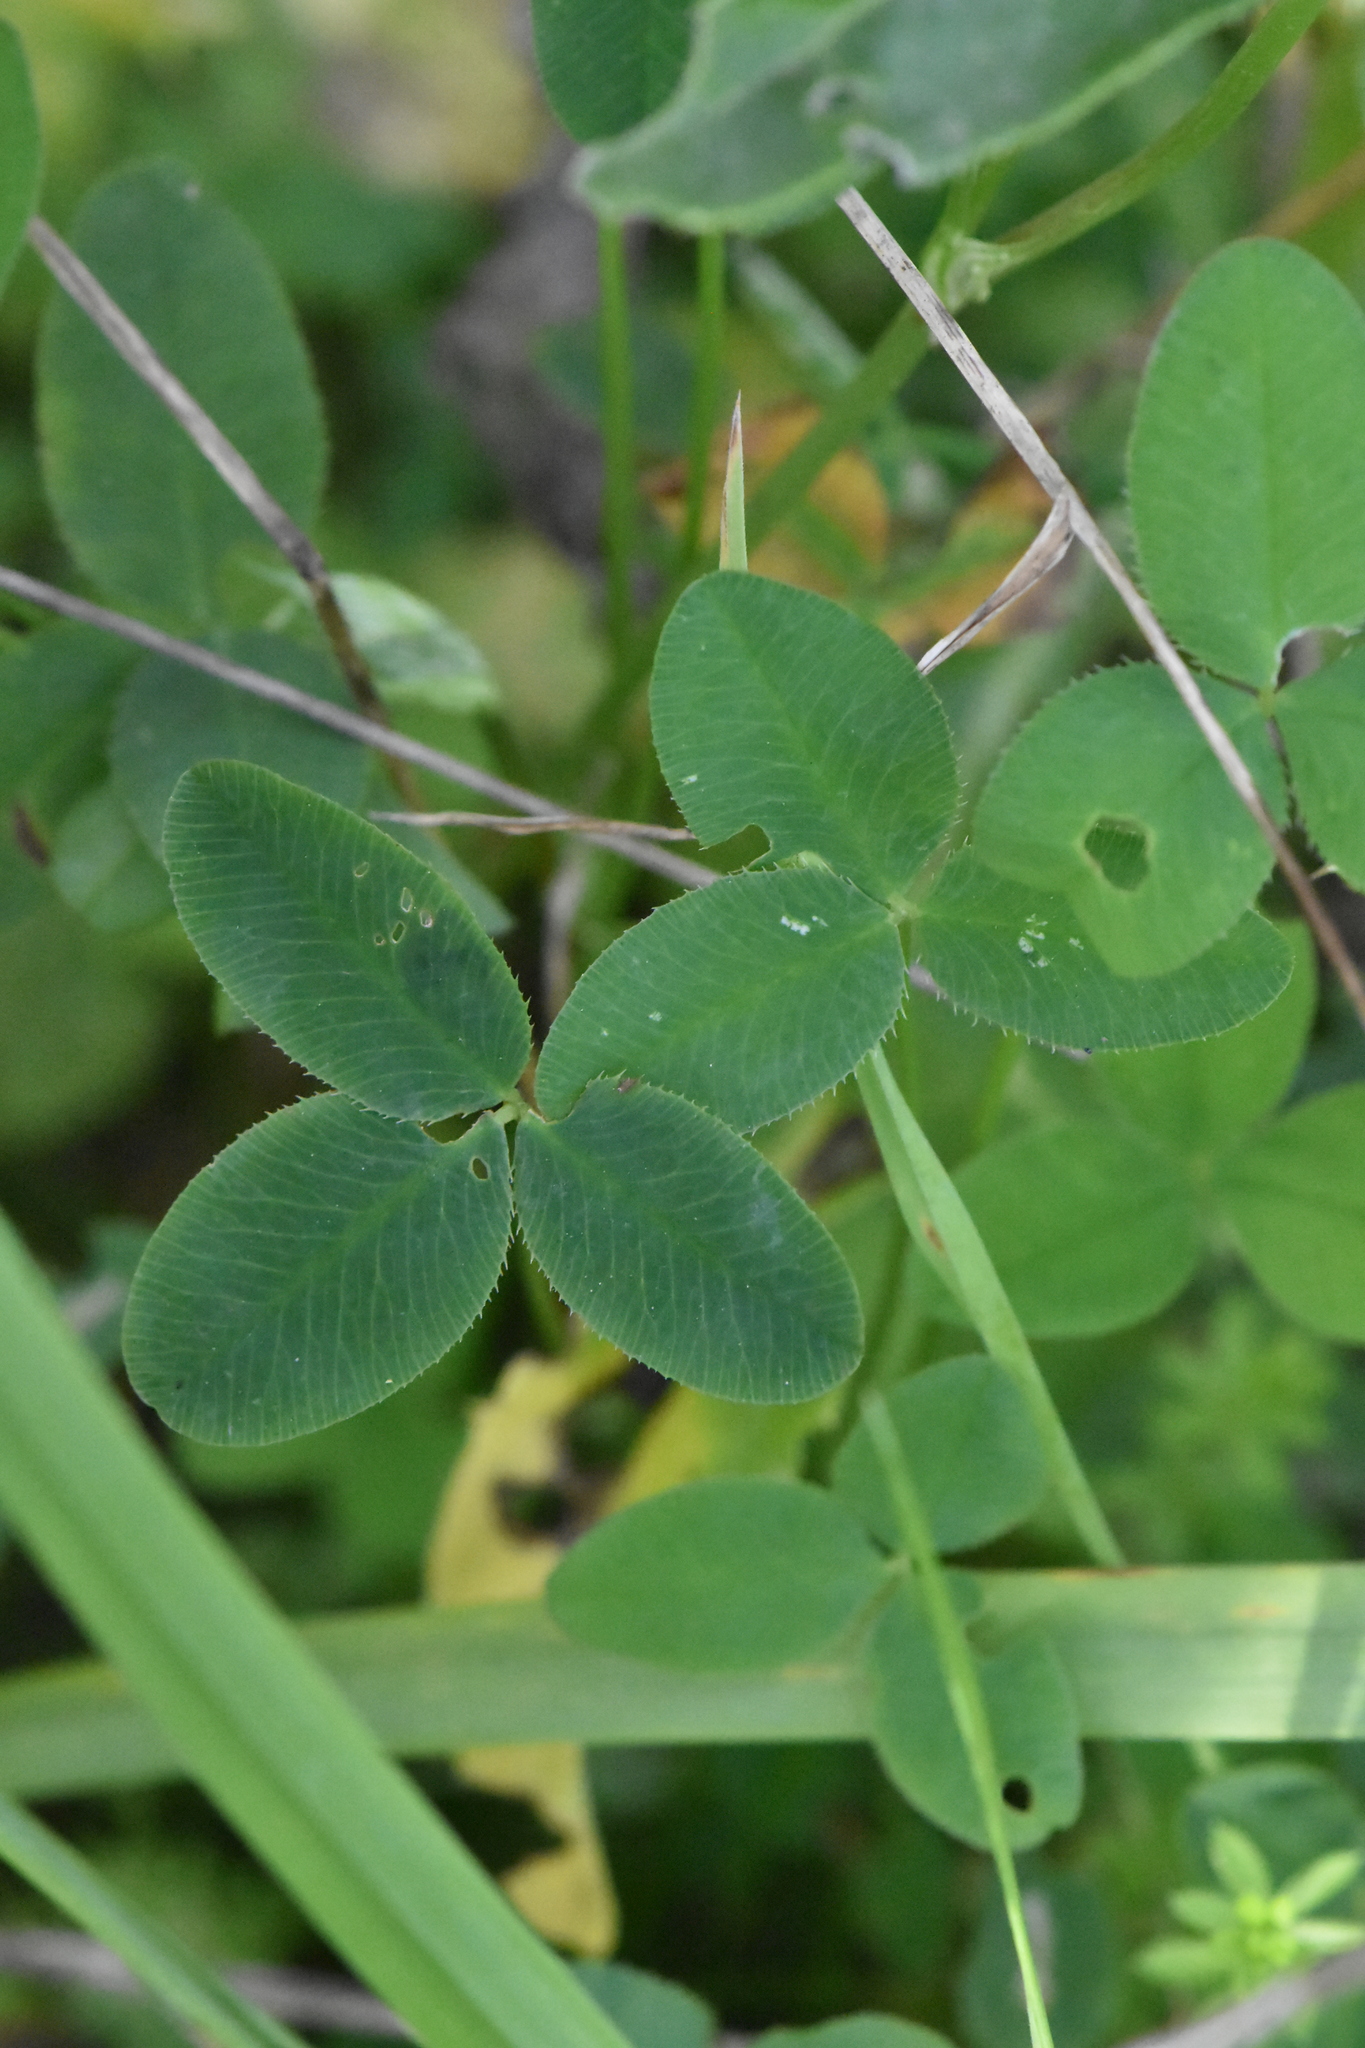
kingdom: Plantae
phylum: Tracheophyta
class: Magnoliopsida
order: Fabales
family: Fabaceae
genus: Trifolium
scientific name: Trifolium hybridum
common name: Alsike clover
